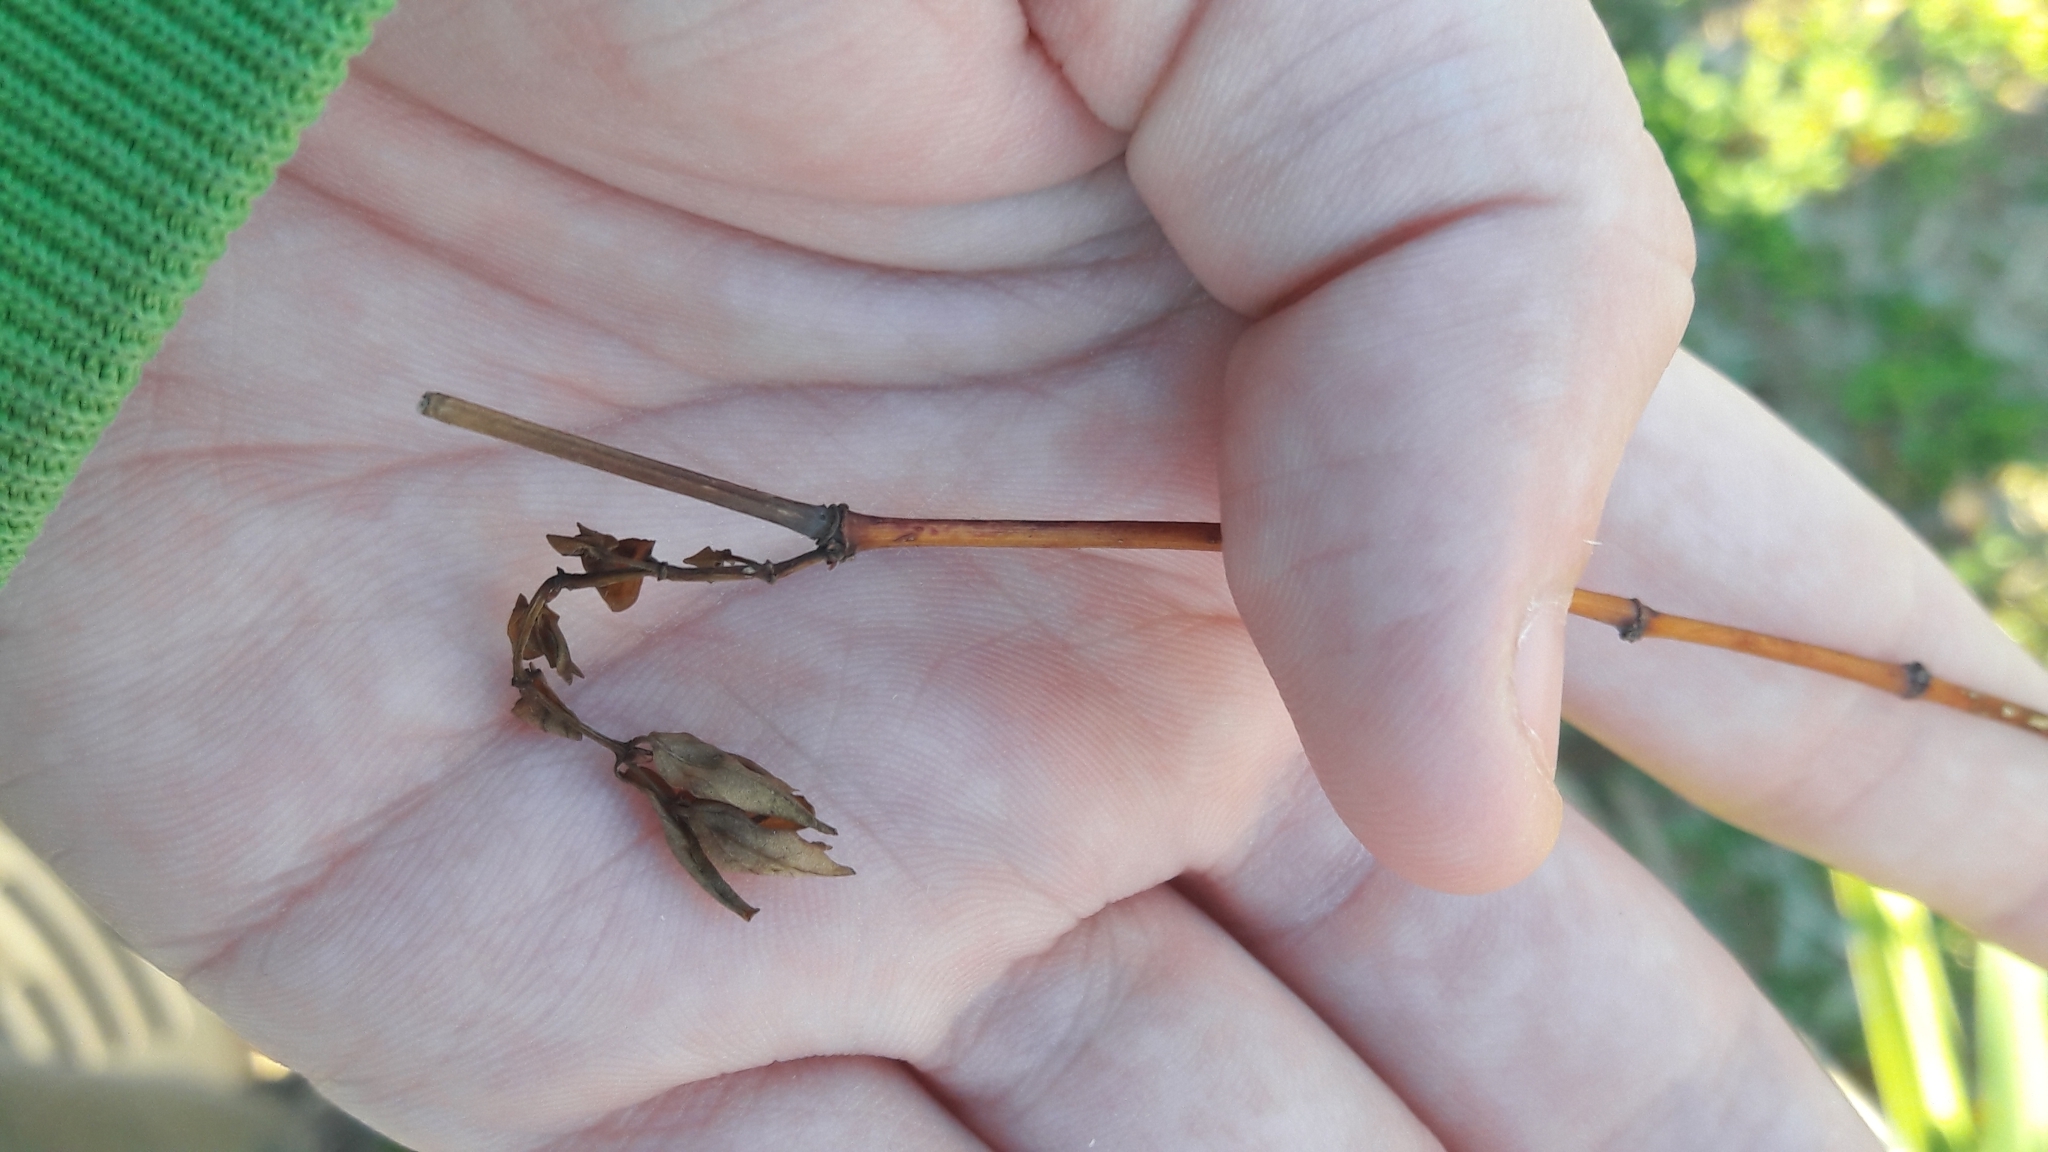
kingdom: Plantae
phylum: Tracheophyta
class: Magnoliopsida
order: Malpighiales
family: Euphorbiaceae
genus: Euphorbia
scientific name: Euphorbia hypericifolia
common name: Graceful sandmat
